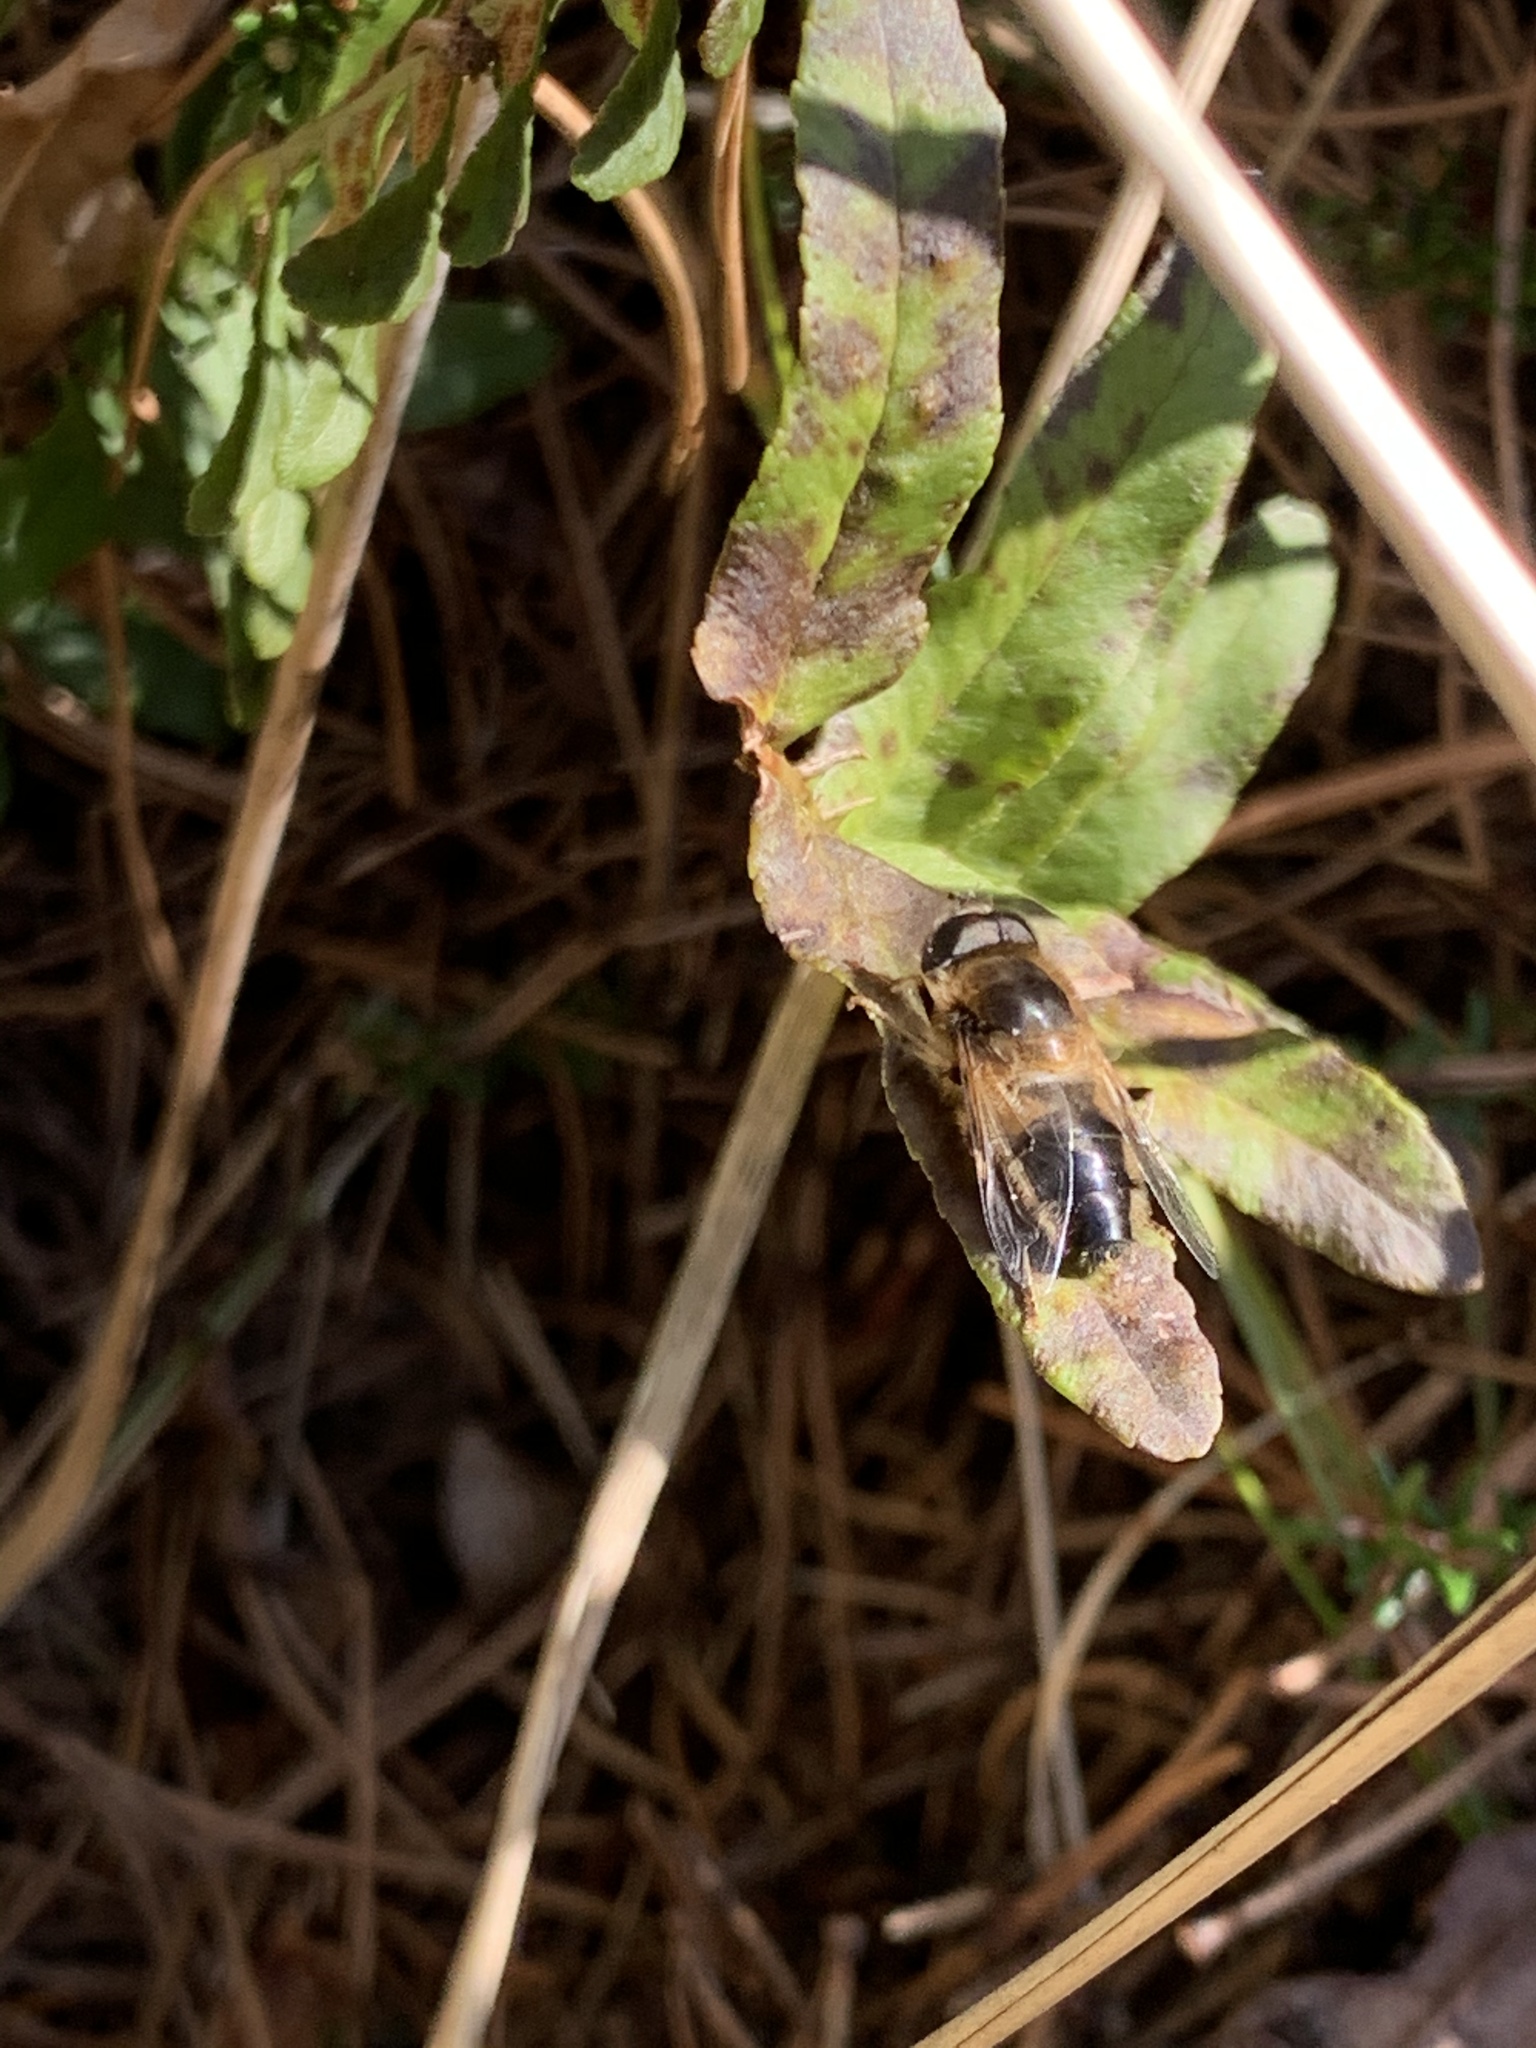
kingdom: Animalia
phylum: Arthropoda
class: Insecta
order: Diptera
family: Syrphidae
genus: Eristalis
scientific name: Eristalis pertinax
